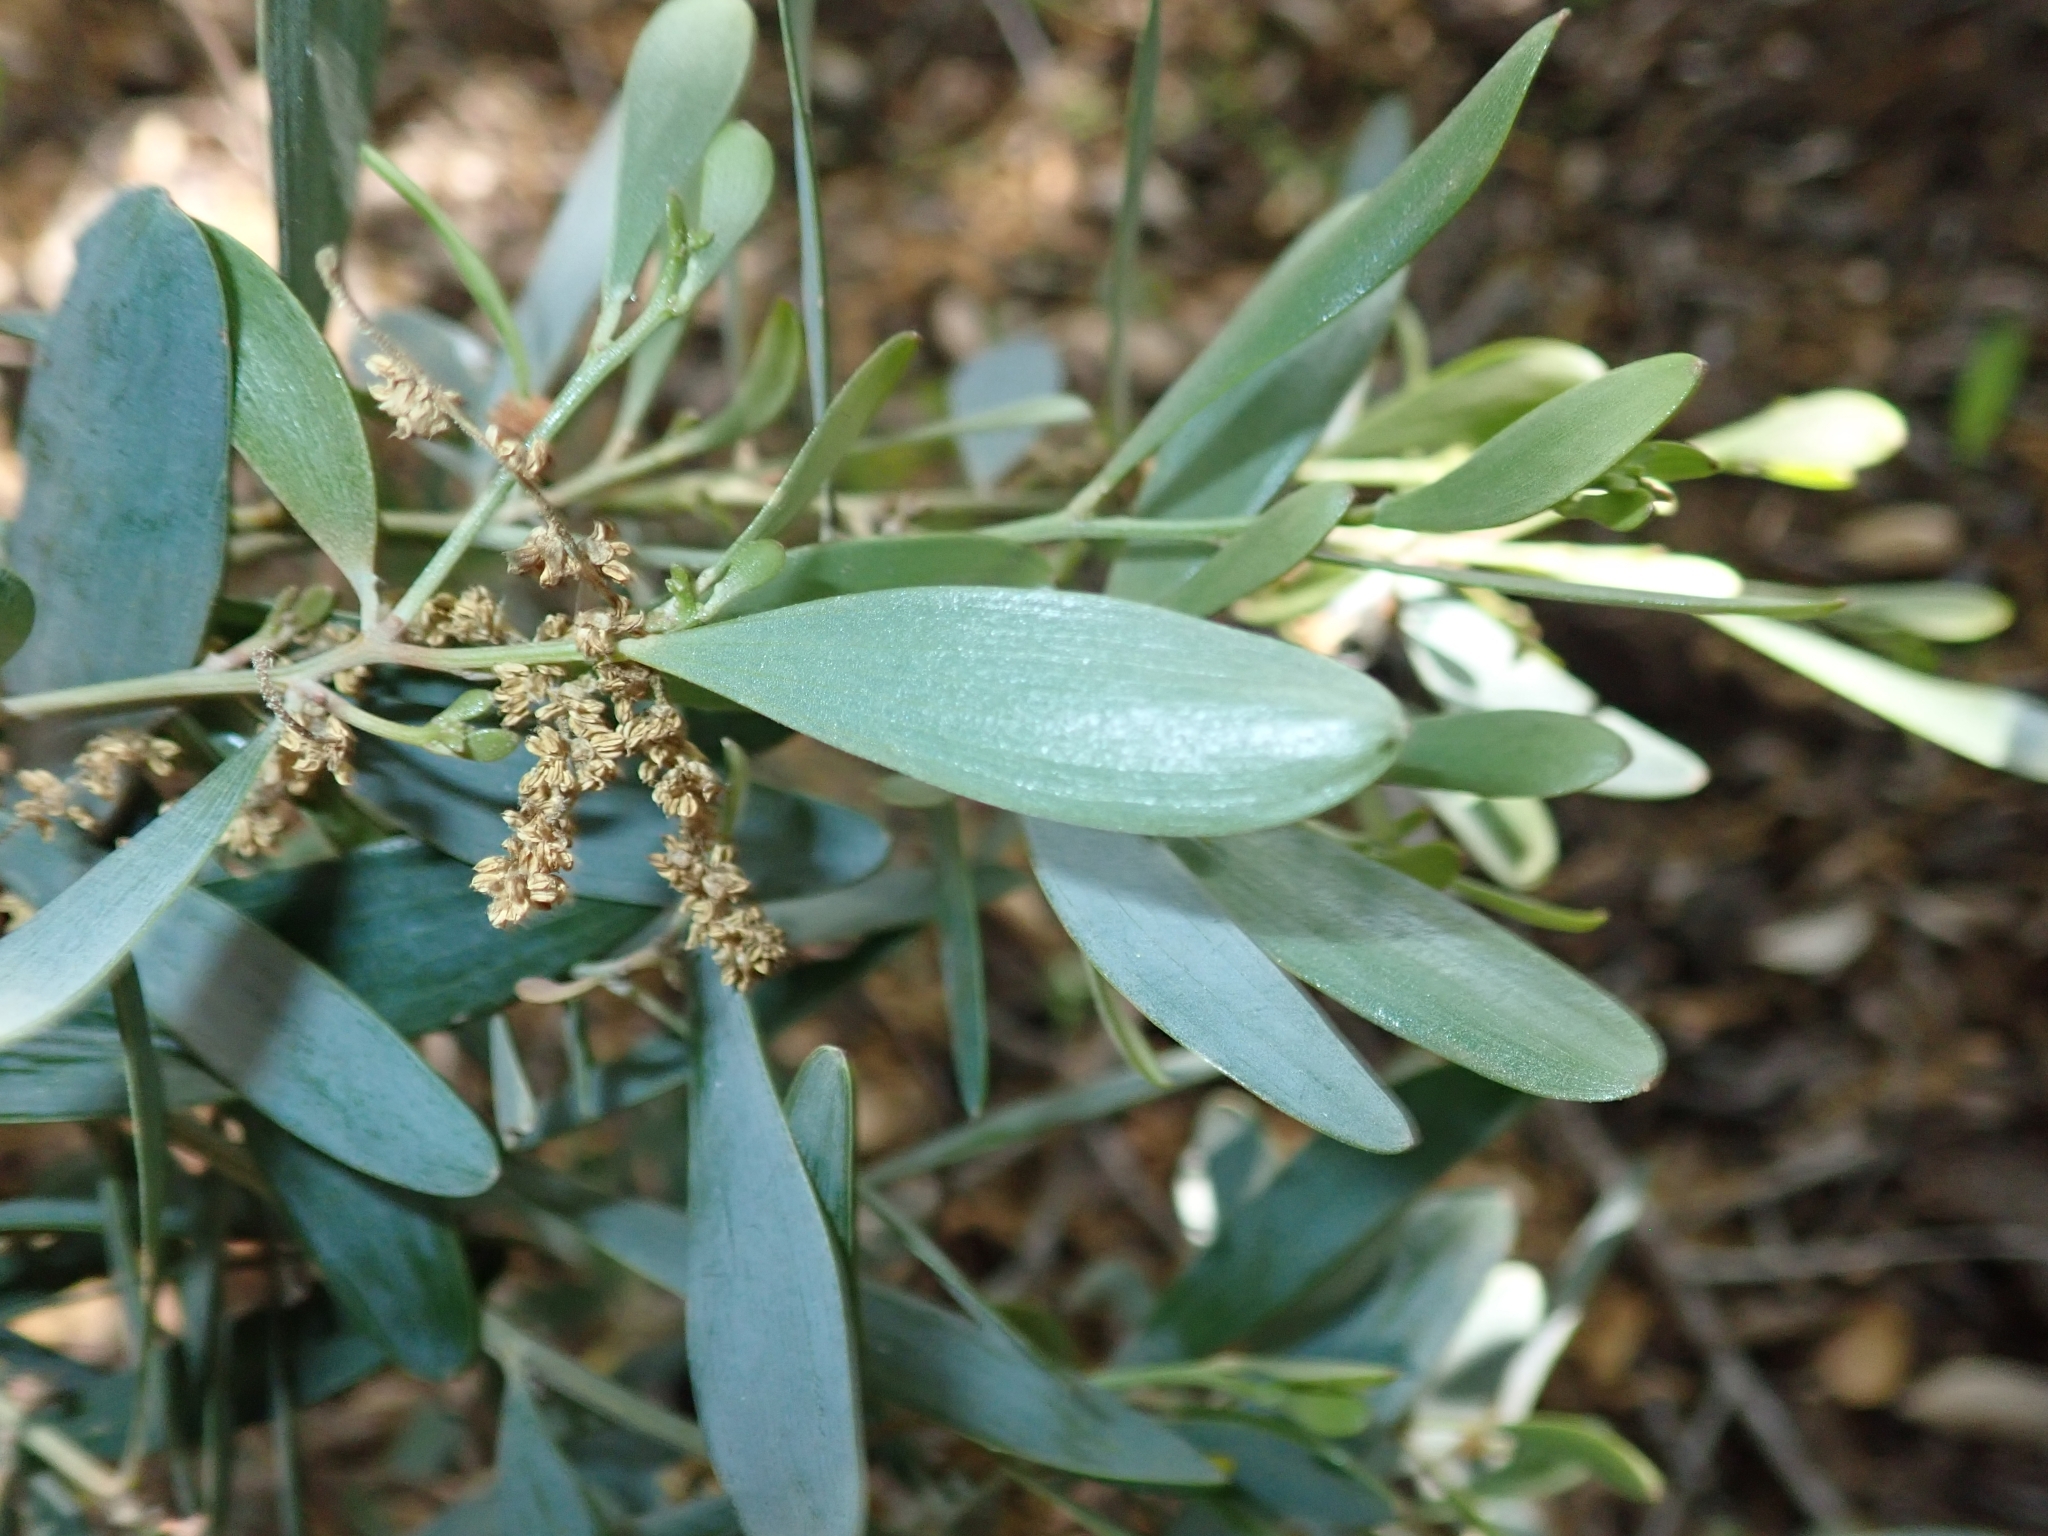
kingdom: Plantae
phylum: Tracheophyta
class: Magnoliopsida
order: Fabales
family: Fabaceae
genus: Acacia
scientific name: Acacia longifolia
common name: Sydney golden wattle
